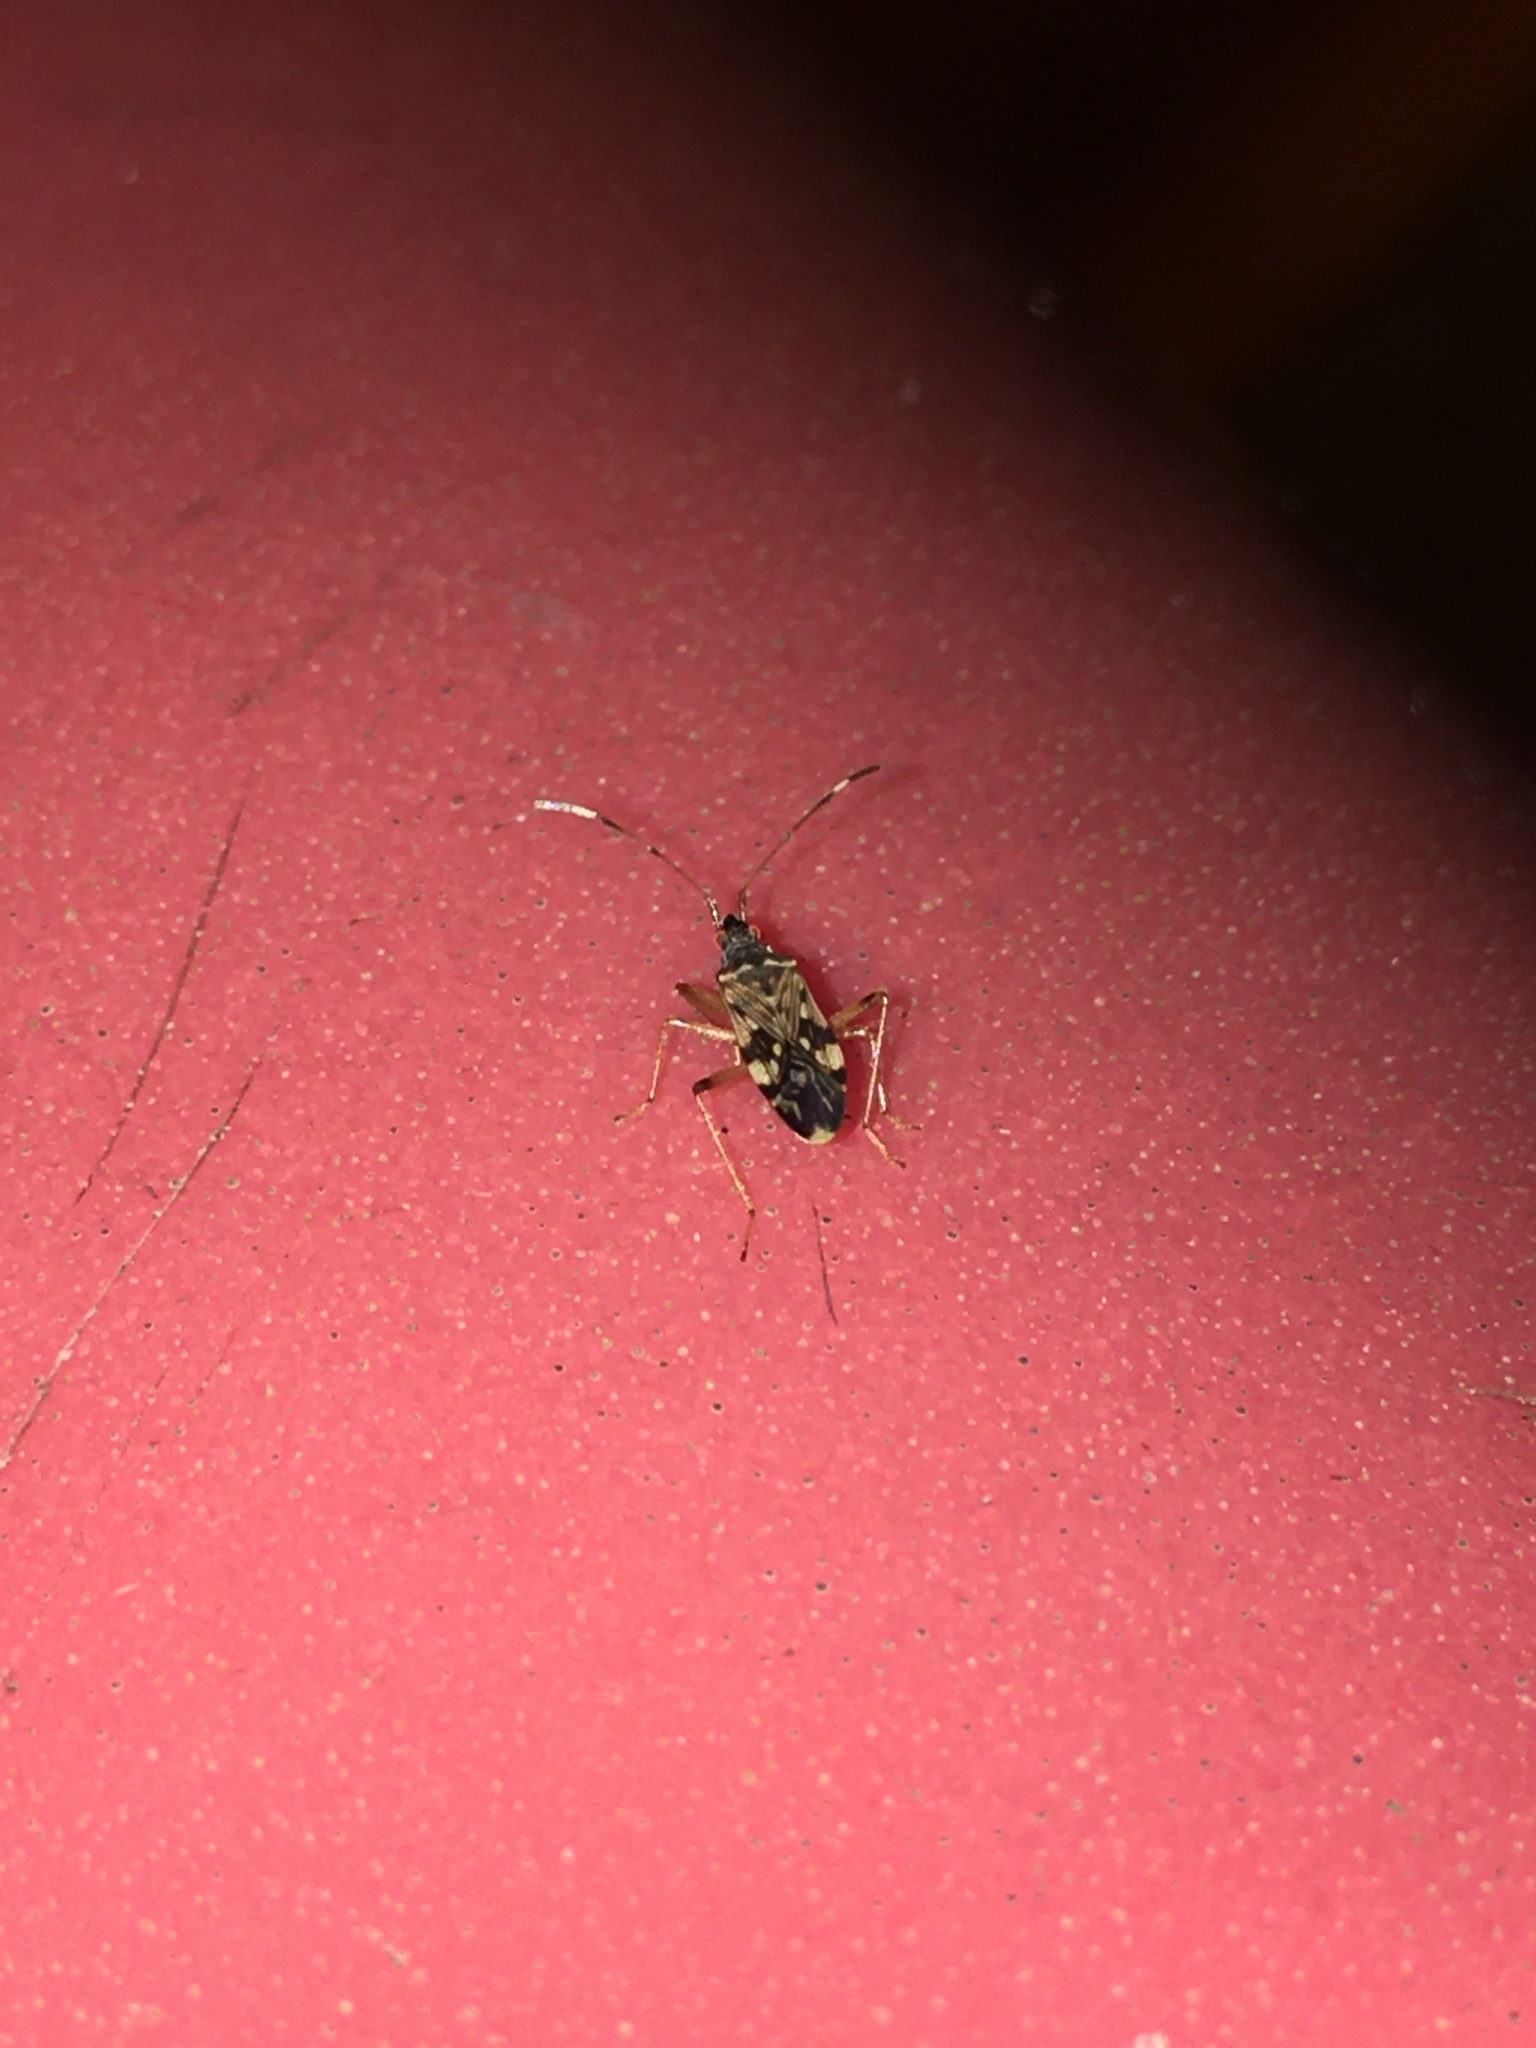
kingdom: Animalia
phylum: Arthropoda
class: Insecta
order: Hemiptera
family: Rhyparochromidae
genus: Ozophora
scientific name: Ozophora picturata
